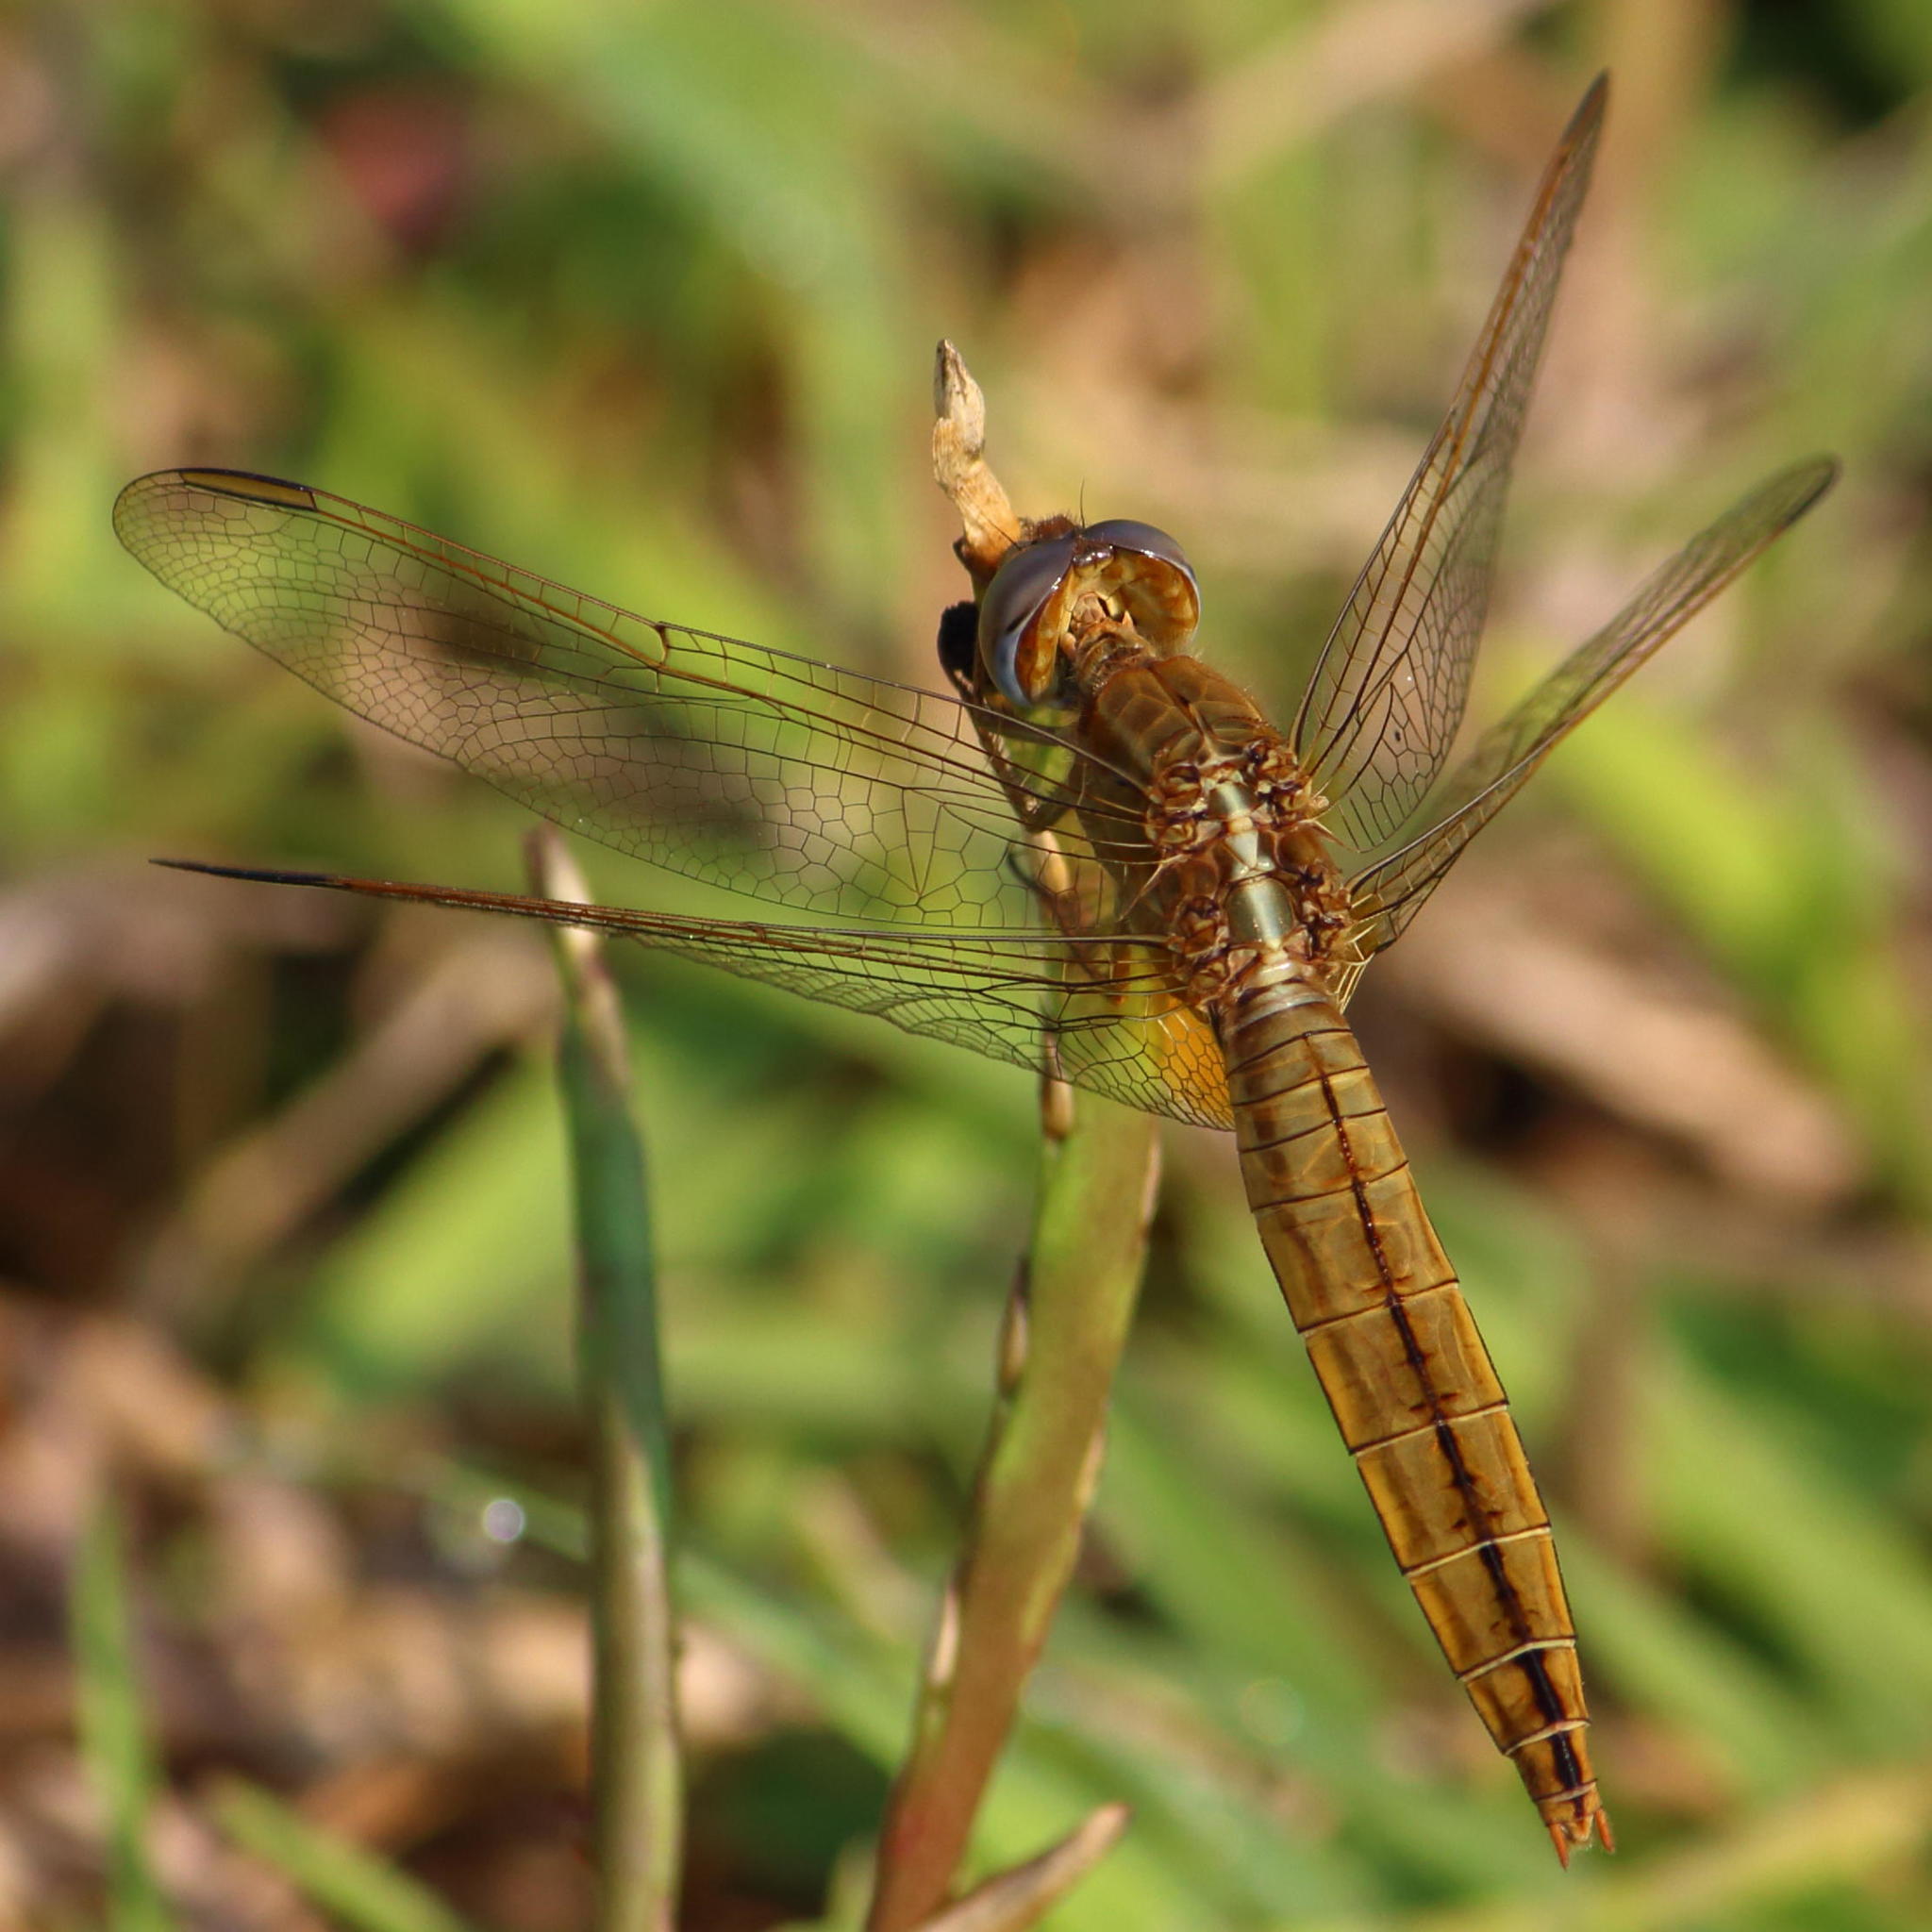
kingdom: Animalia
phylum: Arthropoda
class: Insecta
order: Odonata
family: Libellulidae
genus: Crocothemis
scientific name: Crocothemis erythraea
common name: Scarlet dragonfly
